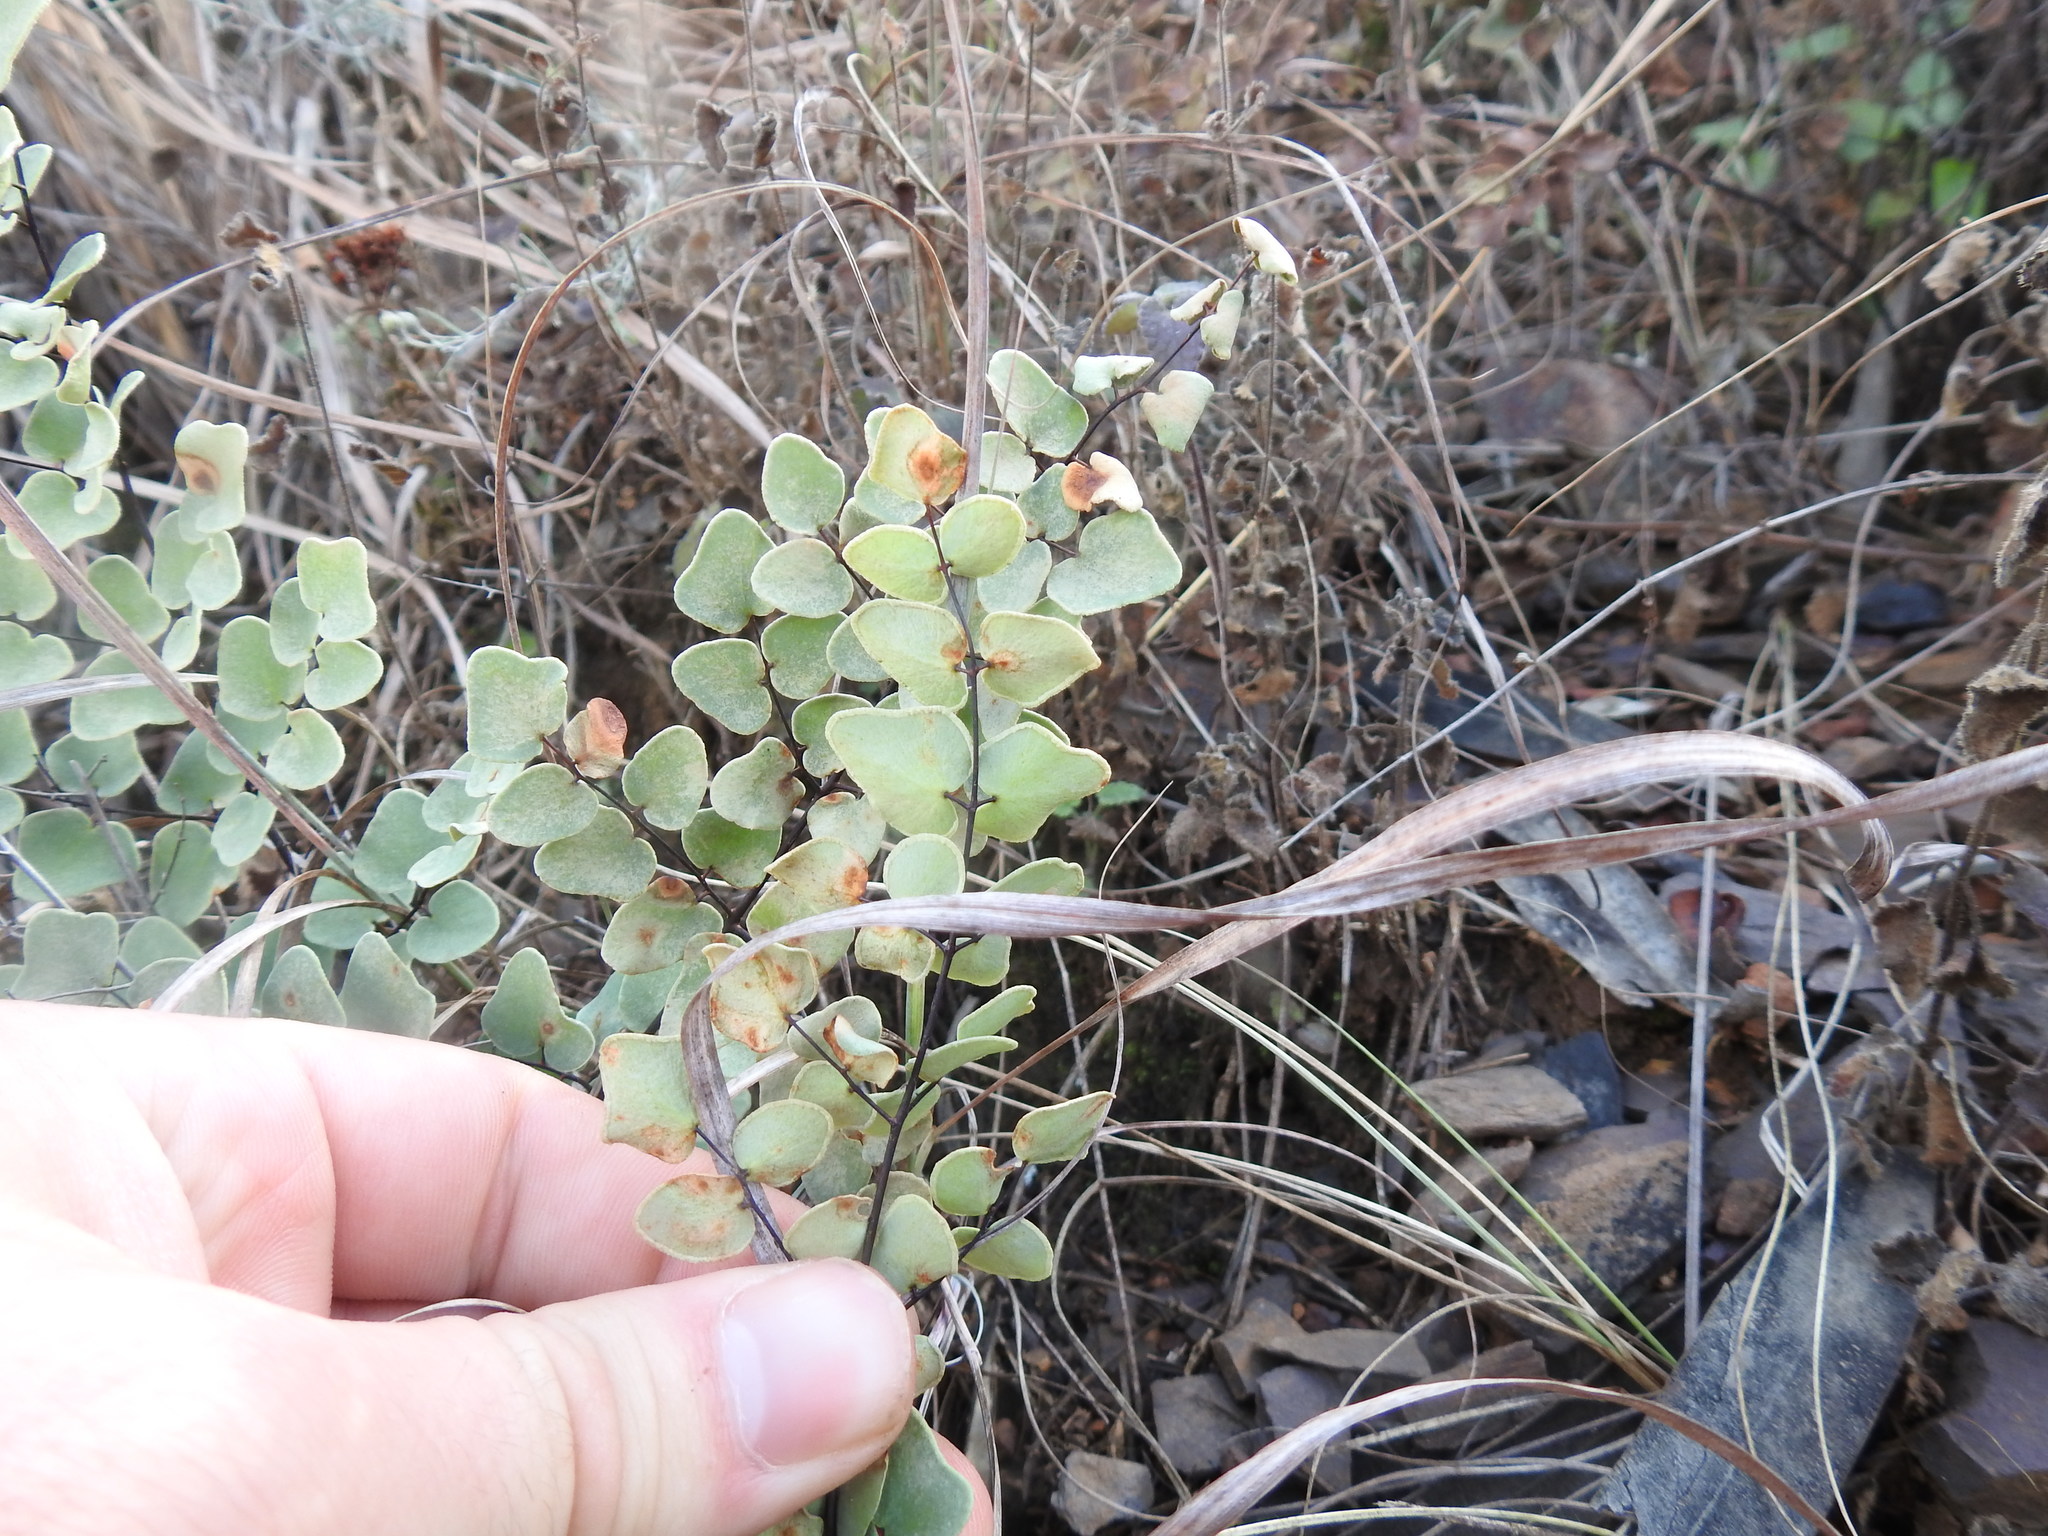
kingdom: Plantae
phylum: Tracheophyta
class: Polypodiopsida
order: Polypodiales
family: Pteridaceae
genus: Pellaea
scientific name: Pellaea calomelanos
